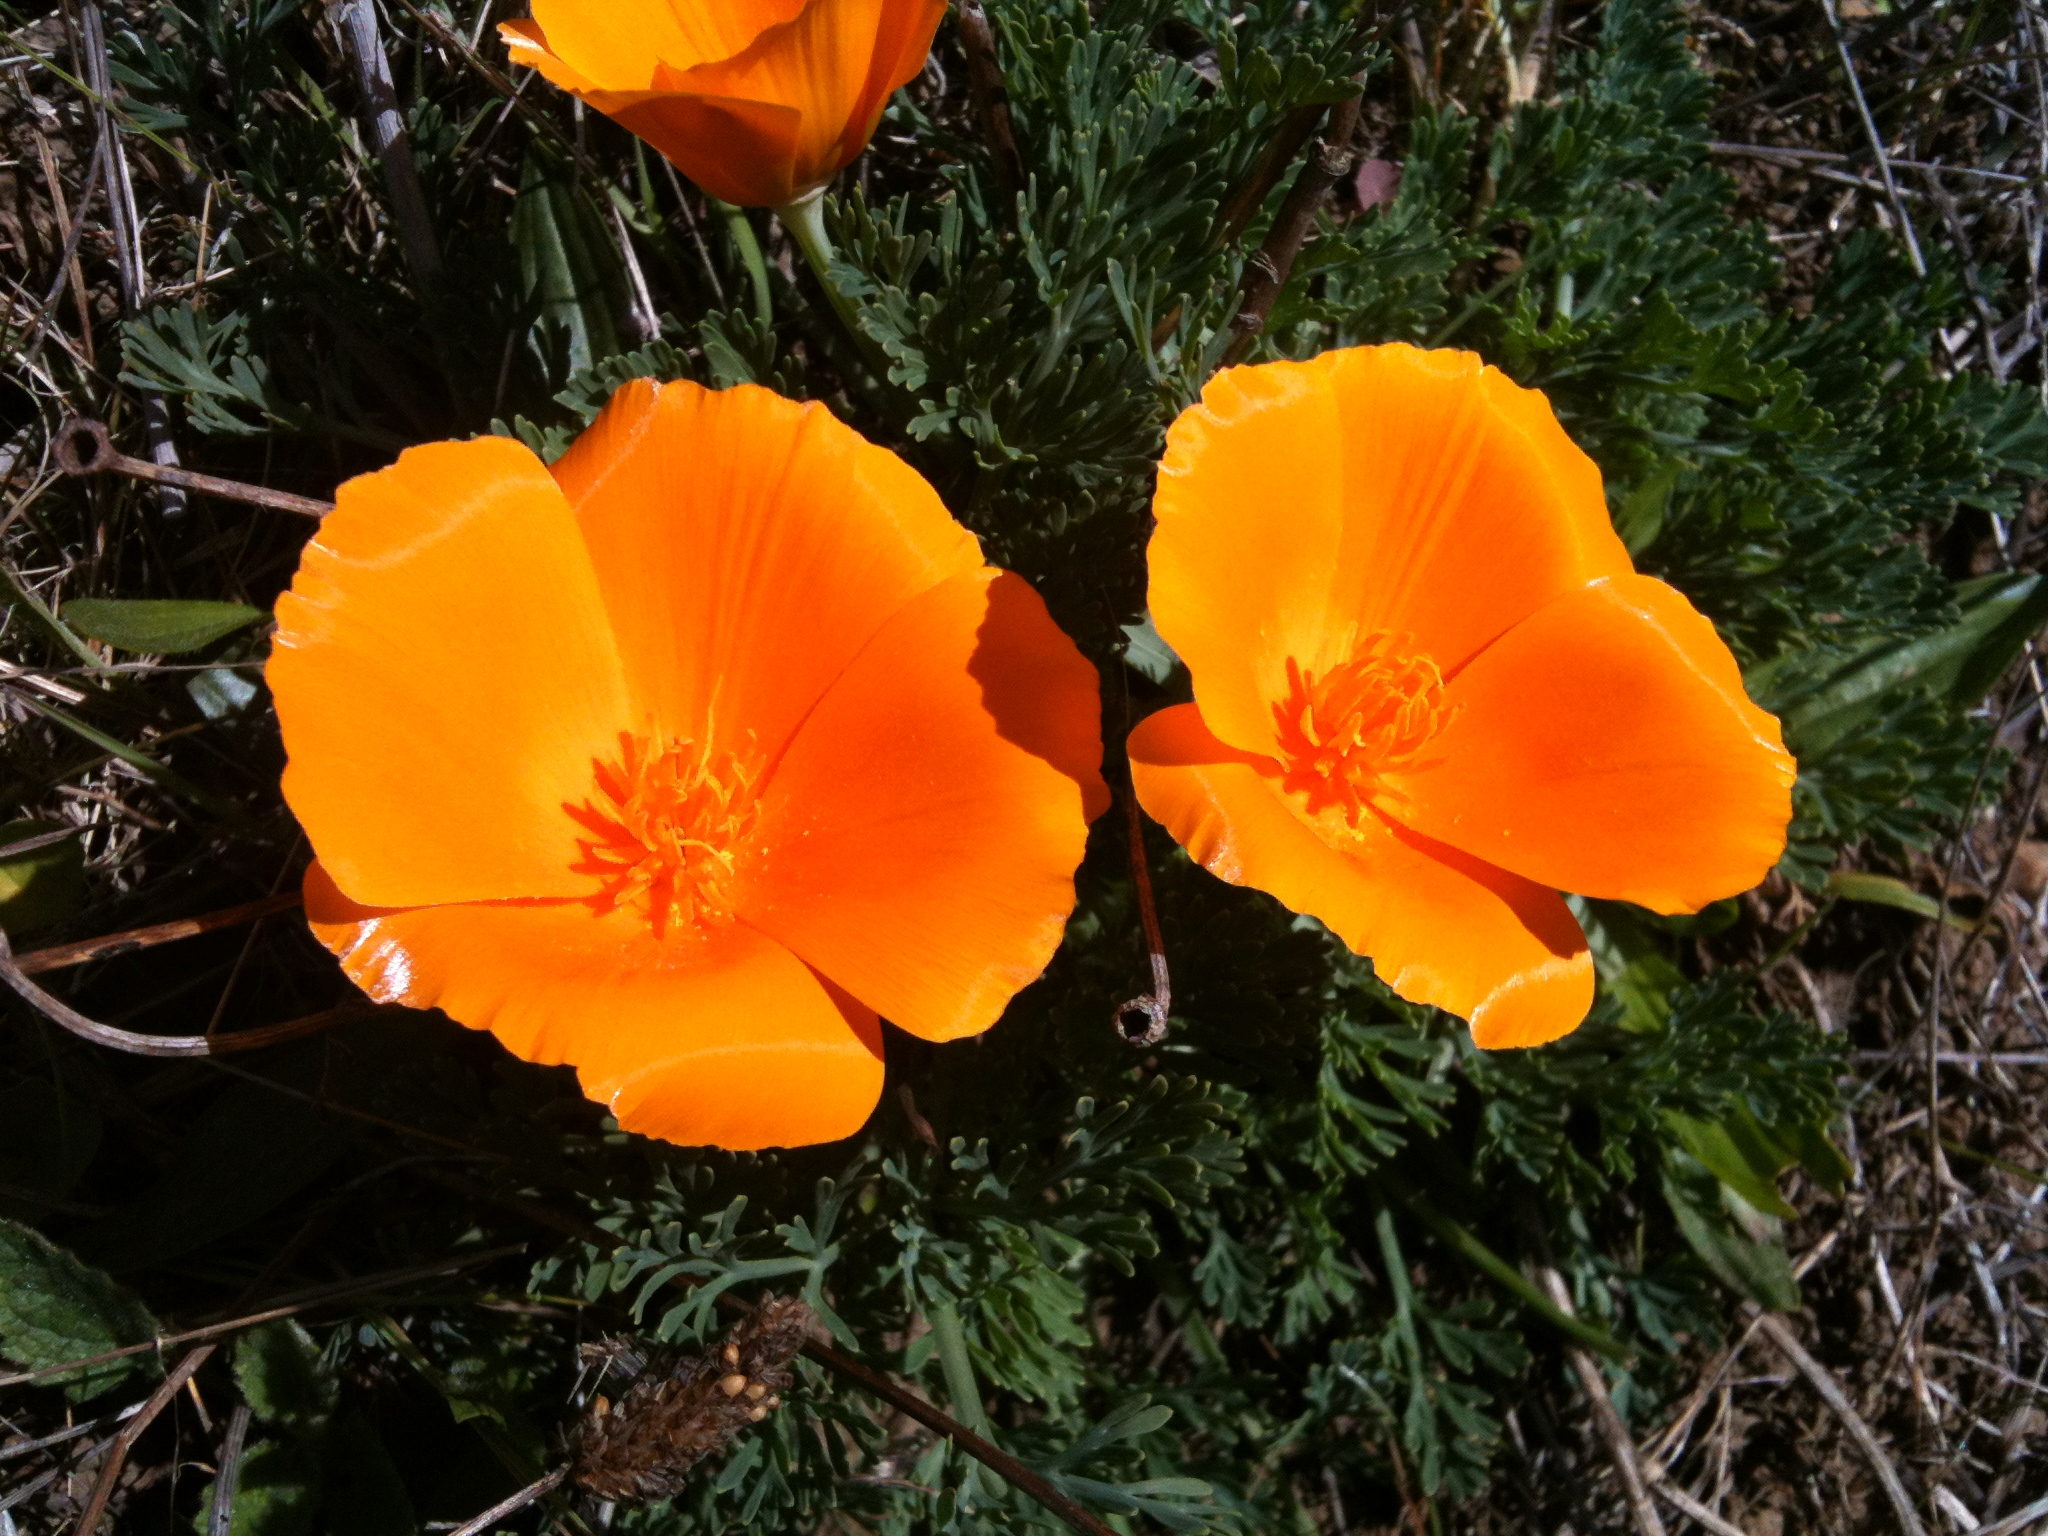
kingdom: Plantae
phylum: Tracheophyta
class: Magnoliopsida
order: Ranunculales
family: Papaveraceae
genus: Eschscholzia
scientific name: Eschscholzia californica
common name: California poppy
